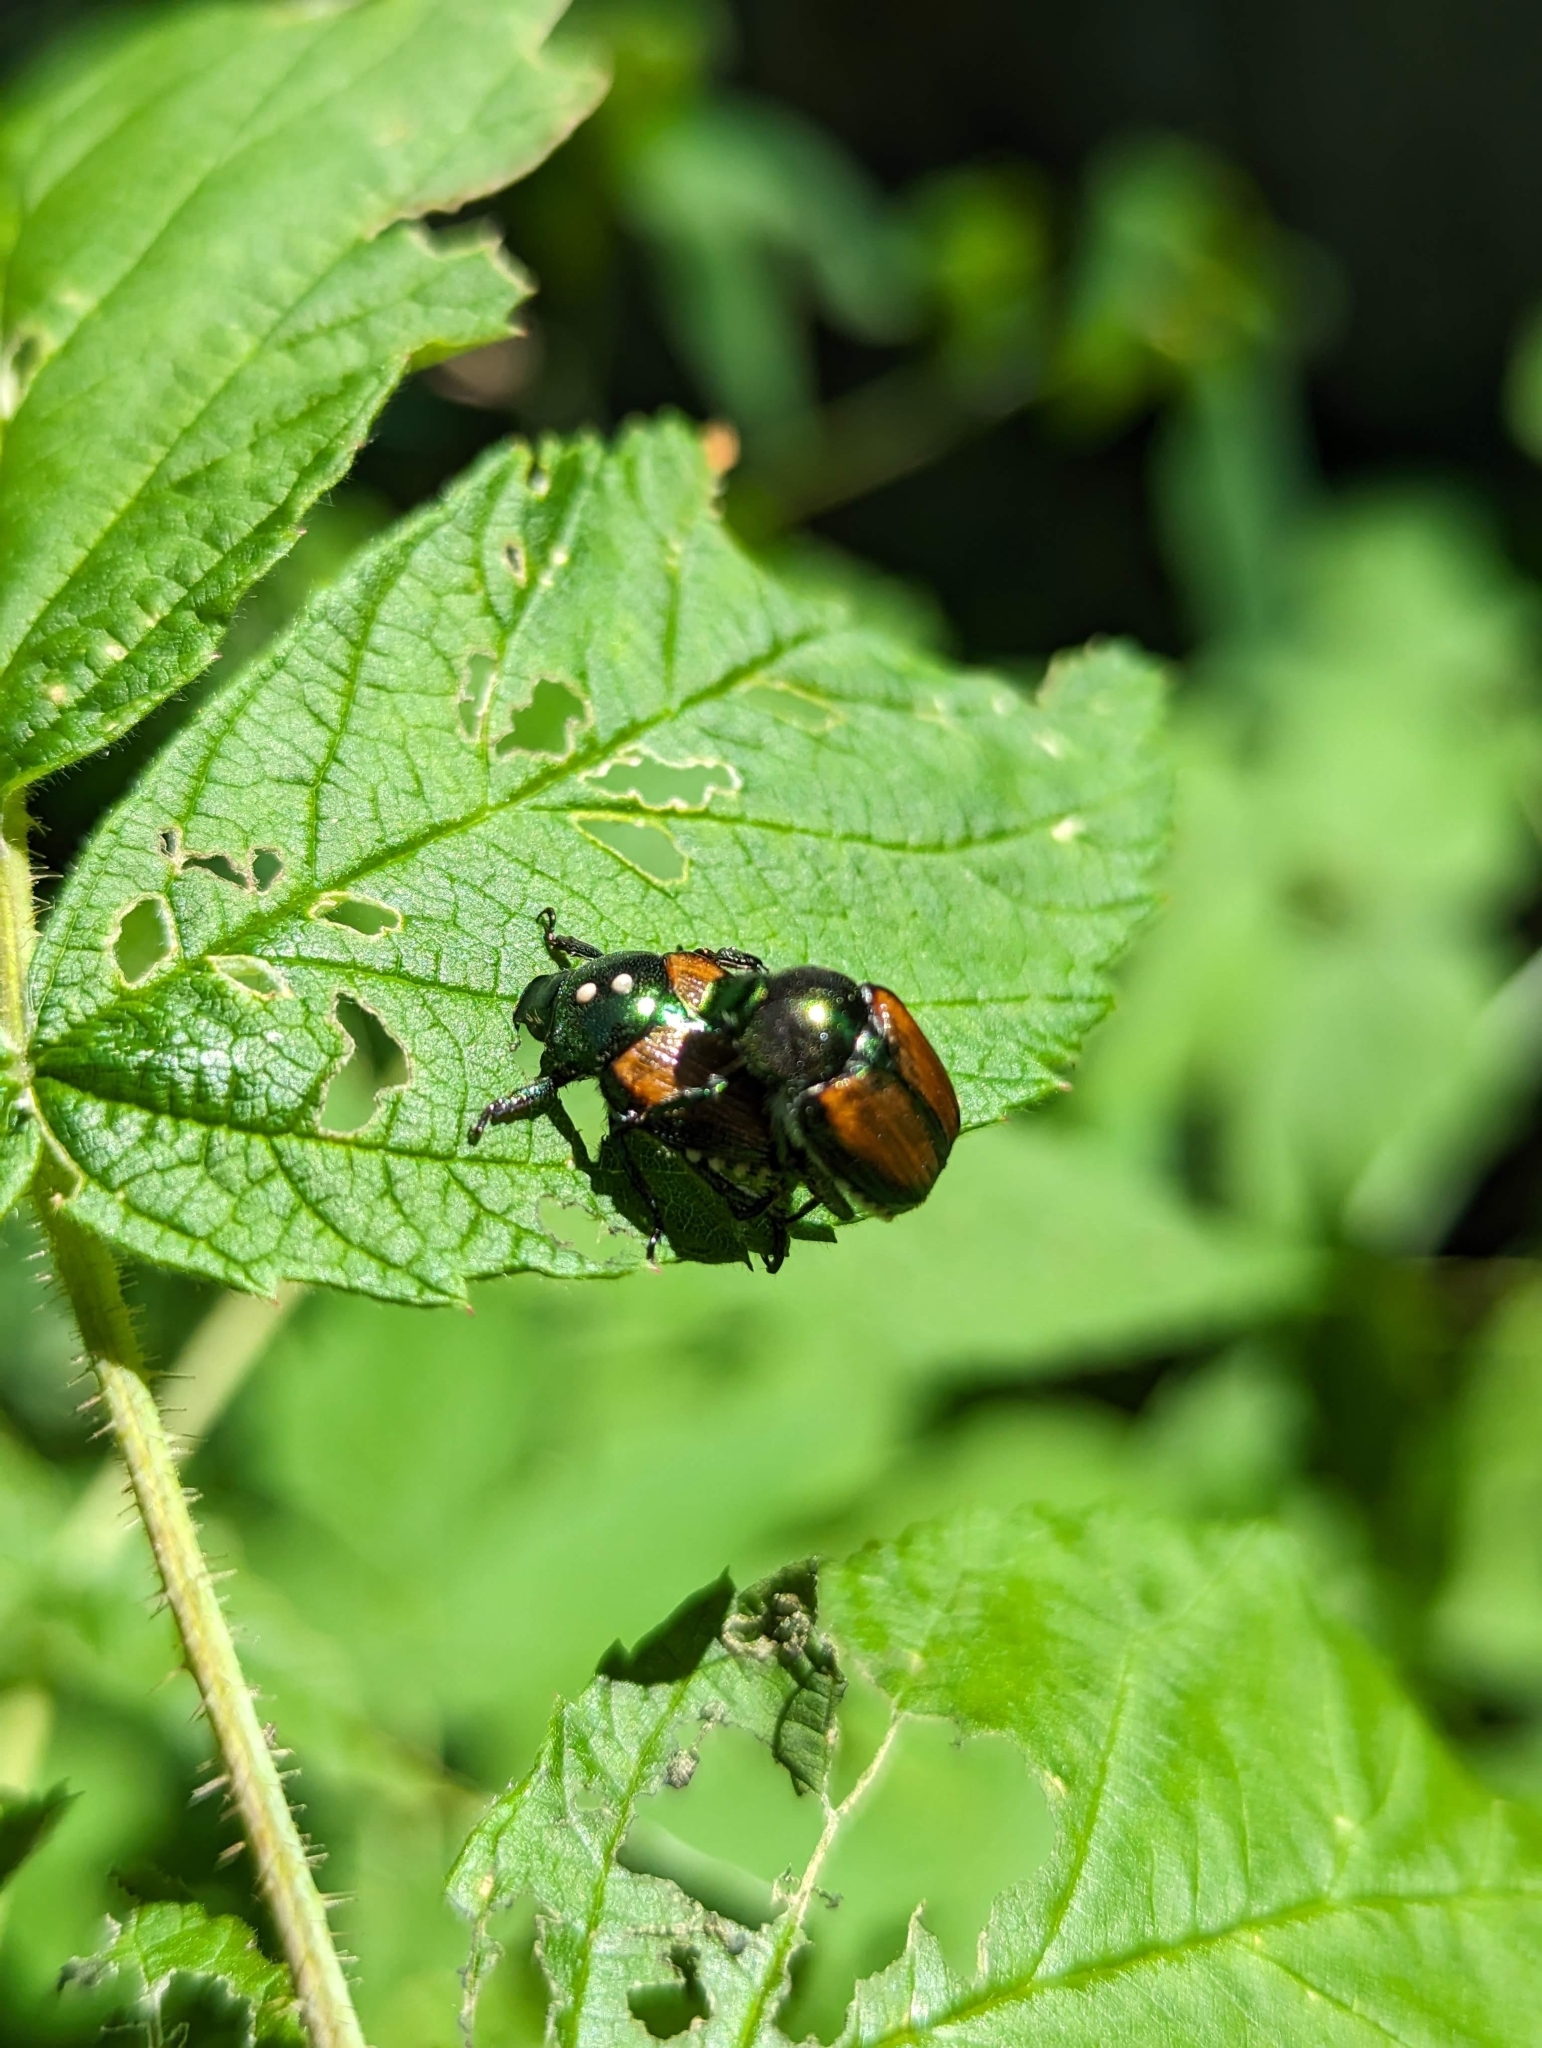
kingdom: Animalia
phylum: Arthropoda
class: Insecta
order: Coleoptera
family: Scarabaeidae
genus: Popillia
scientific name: Popillia japonica
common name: Japanese beetle
